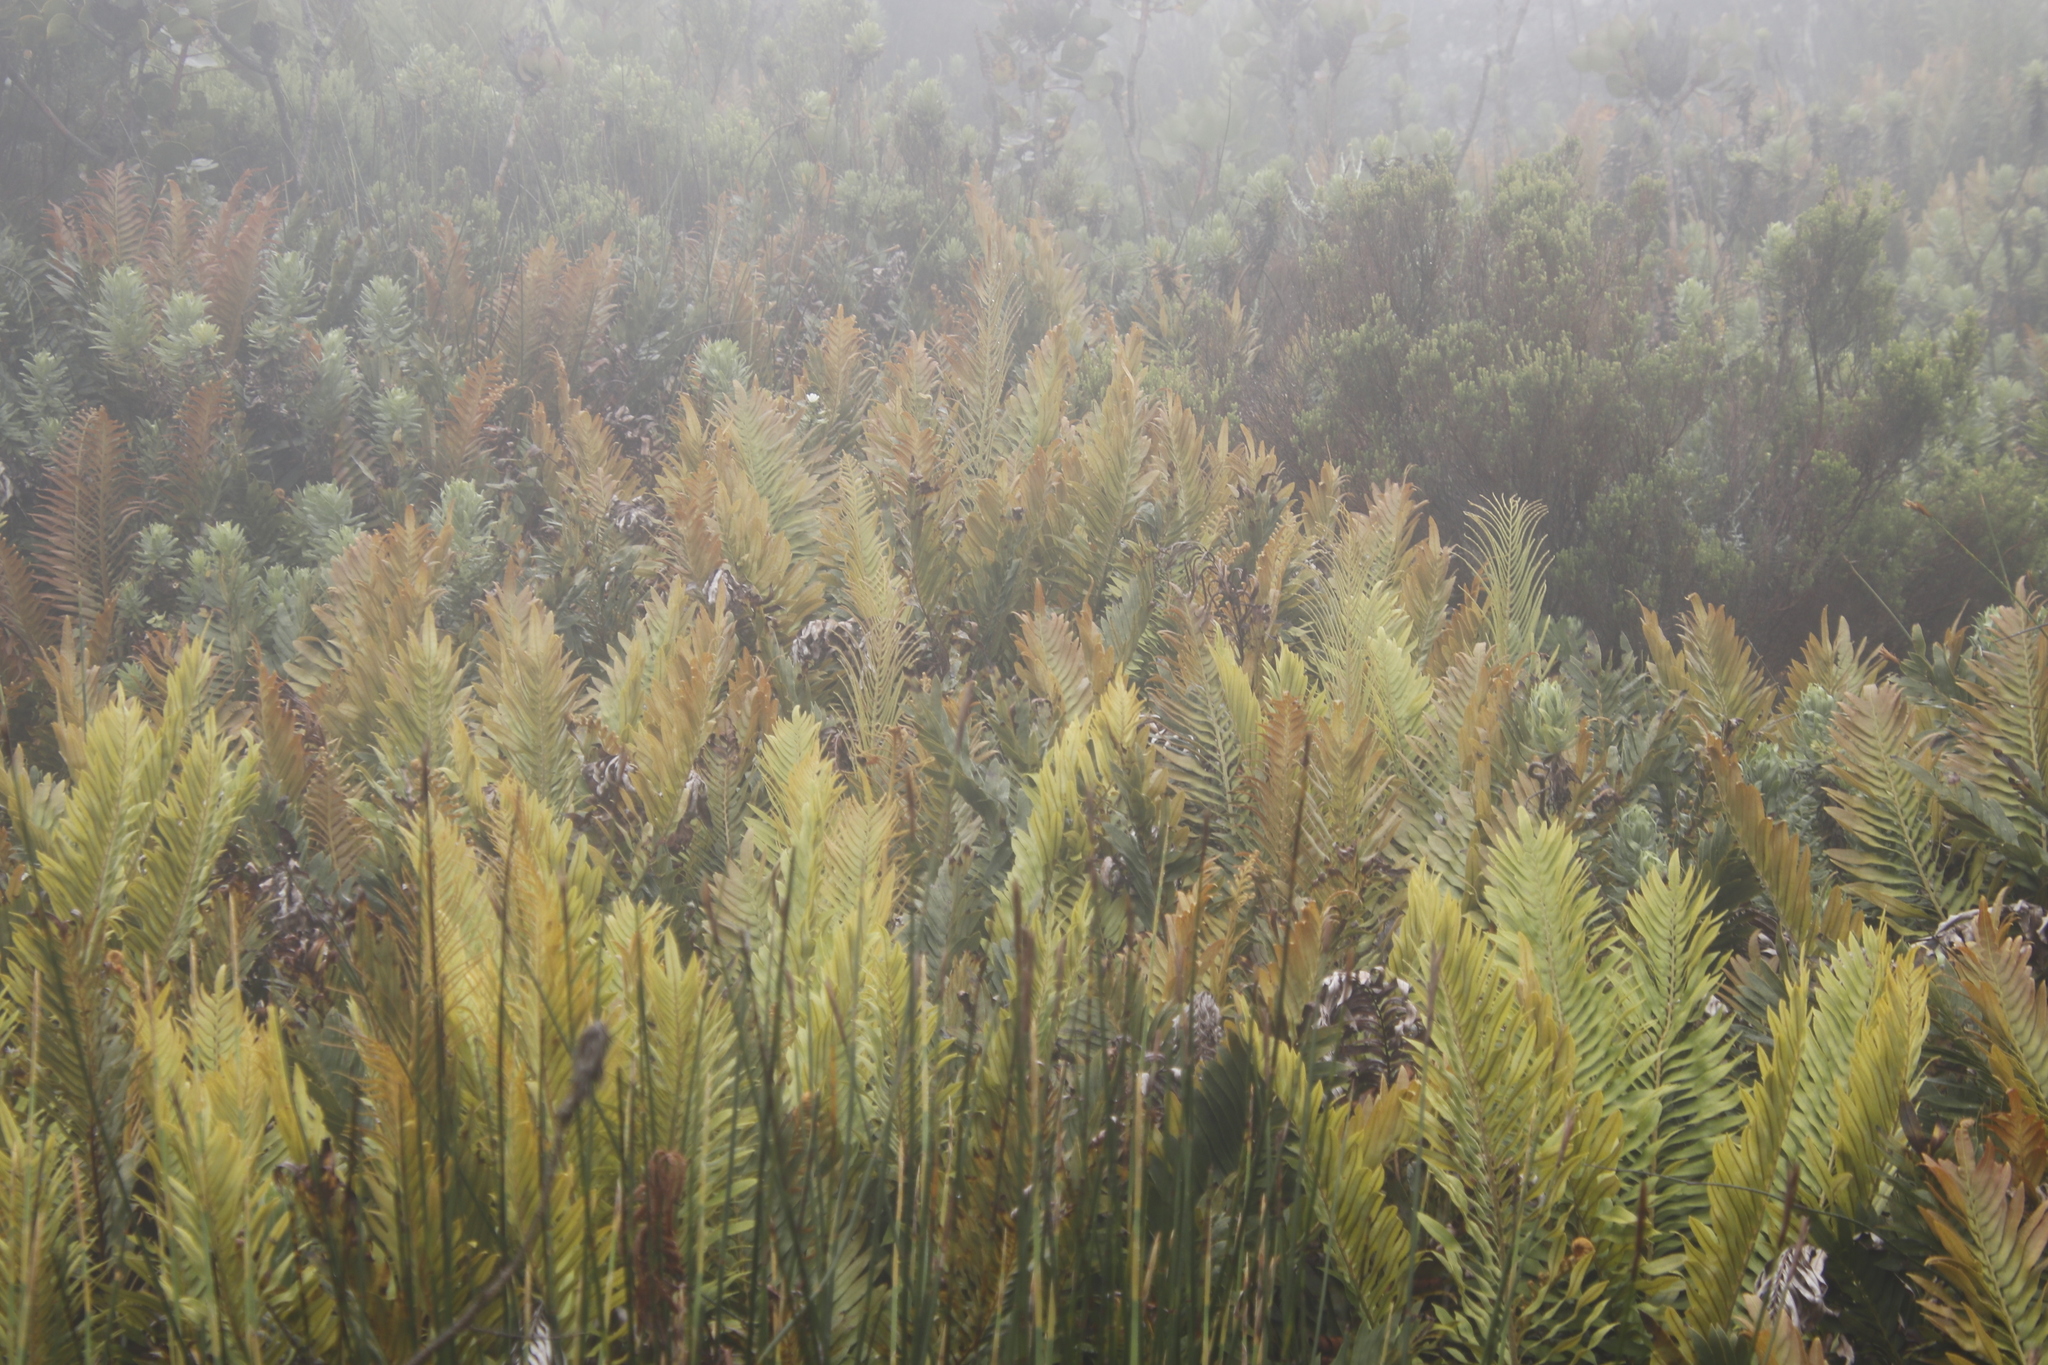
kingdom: Plantae
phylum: Tracheophyta
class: Polypodiopsida
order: Polypodiales
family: Blechnaceae
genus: Lomariocycas
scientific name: Lomariocycas tabularis
